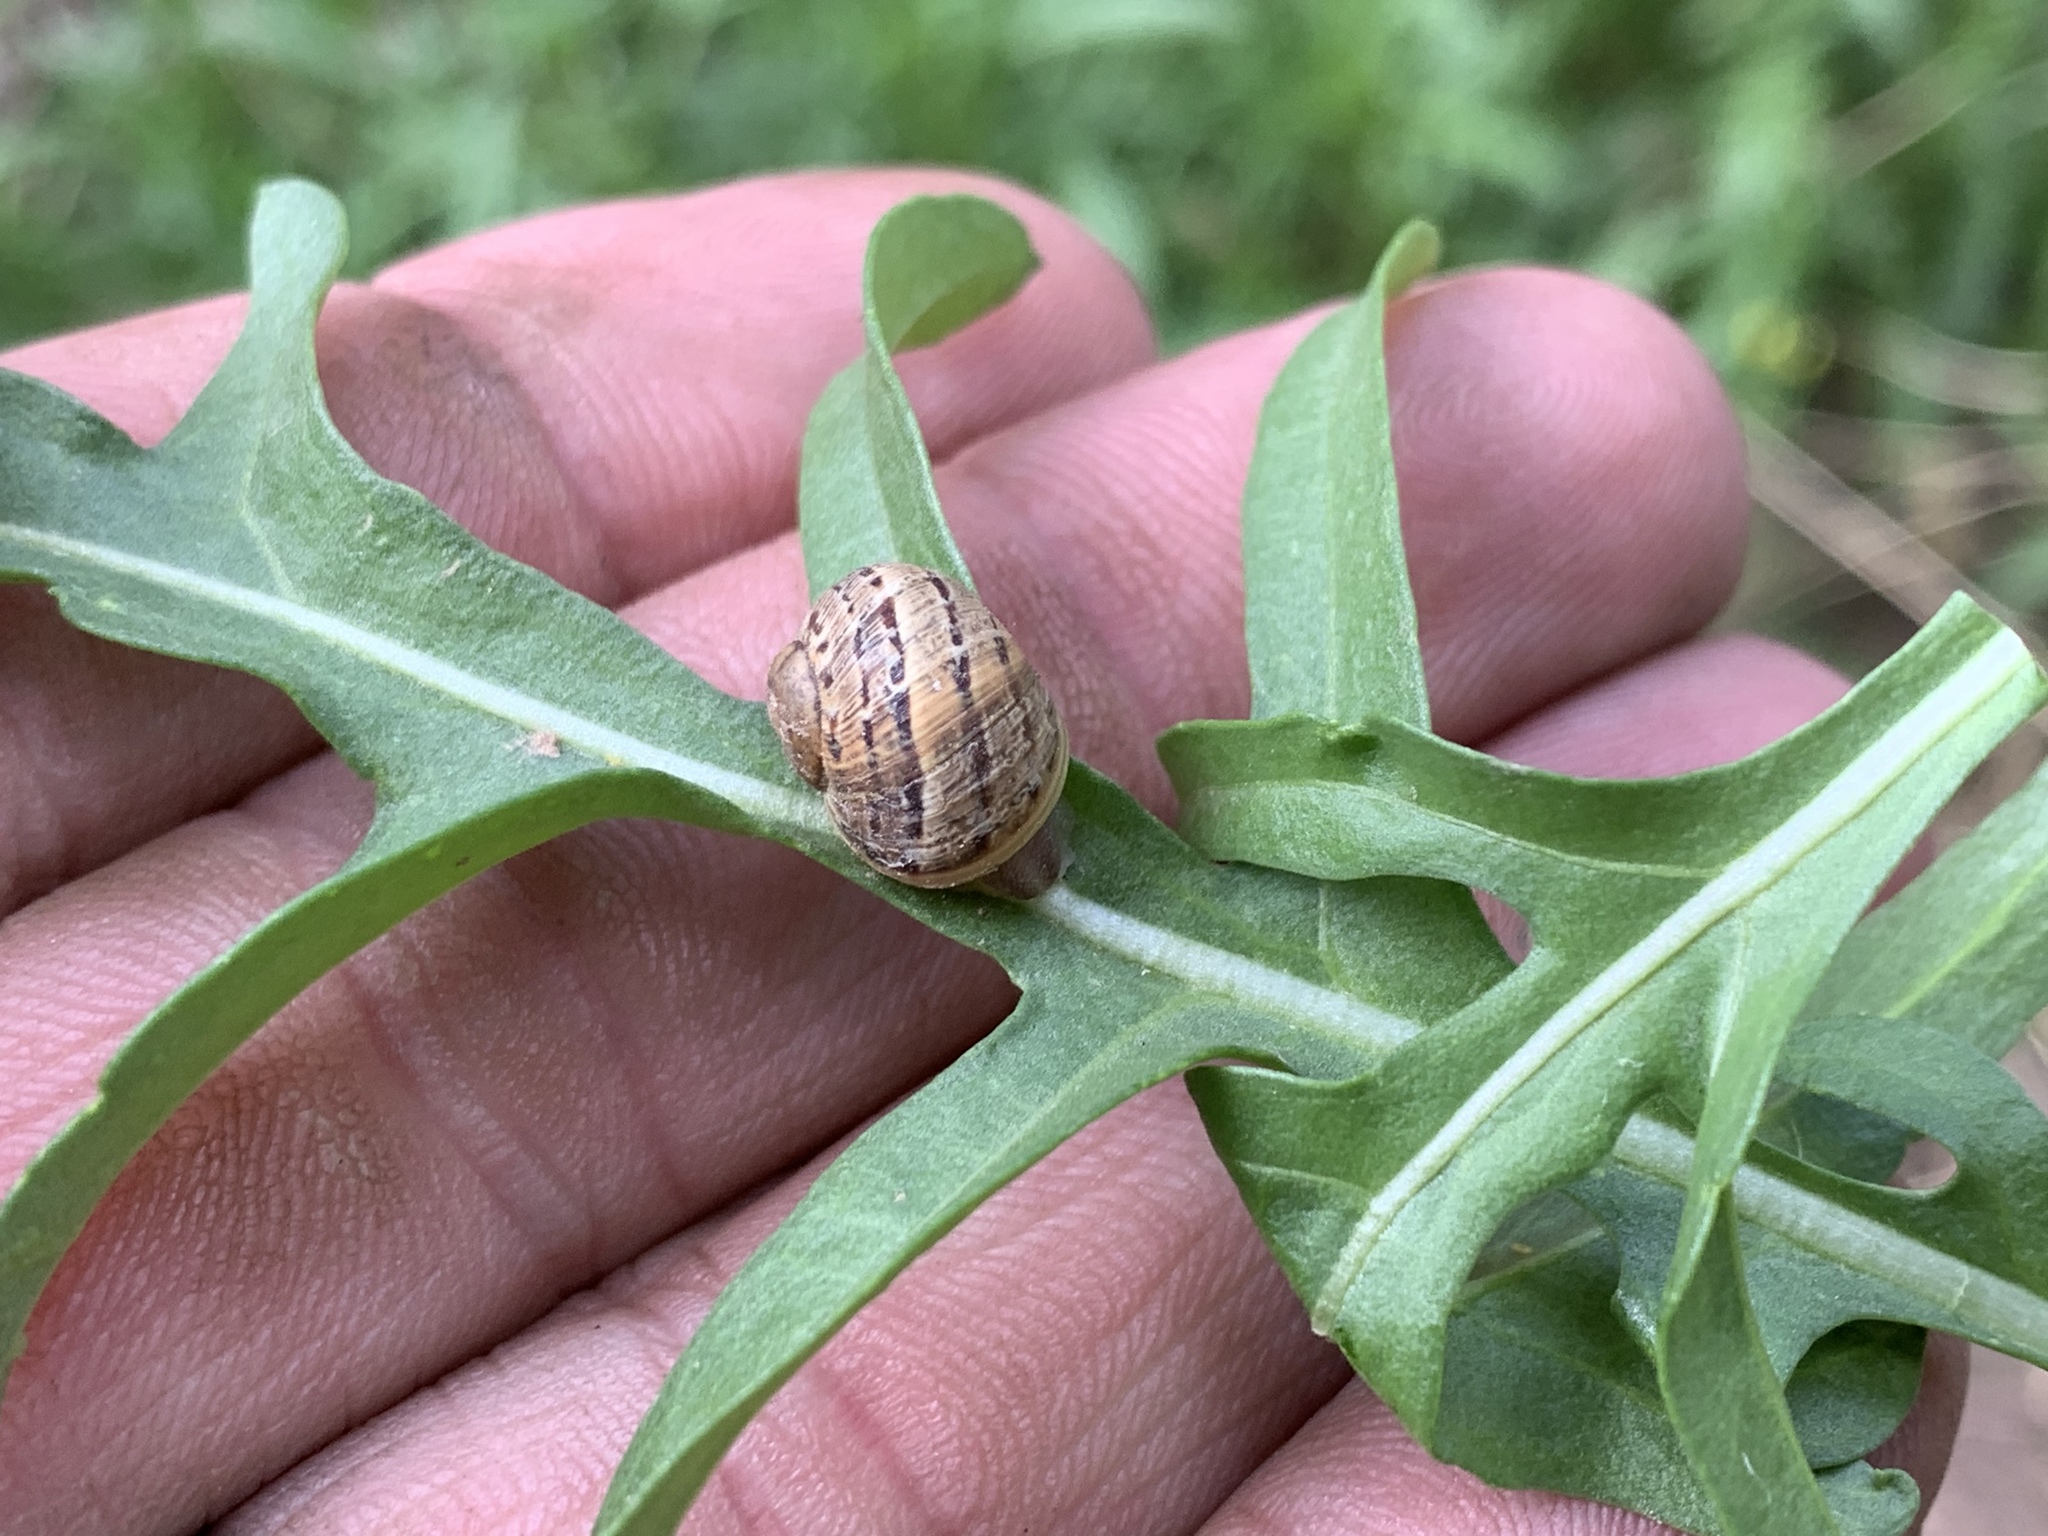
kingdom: Animalia
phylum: Mollusca
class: Gastropoda
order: Stylommatophora
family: Helicidae
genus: Cornu
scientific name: Cornu aspersum
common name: Brown garden snail
